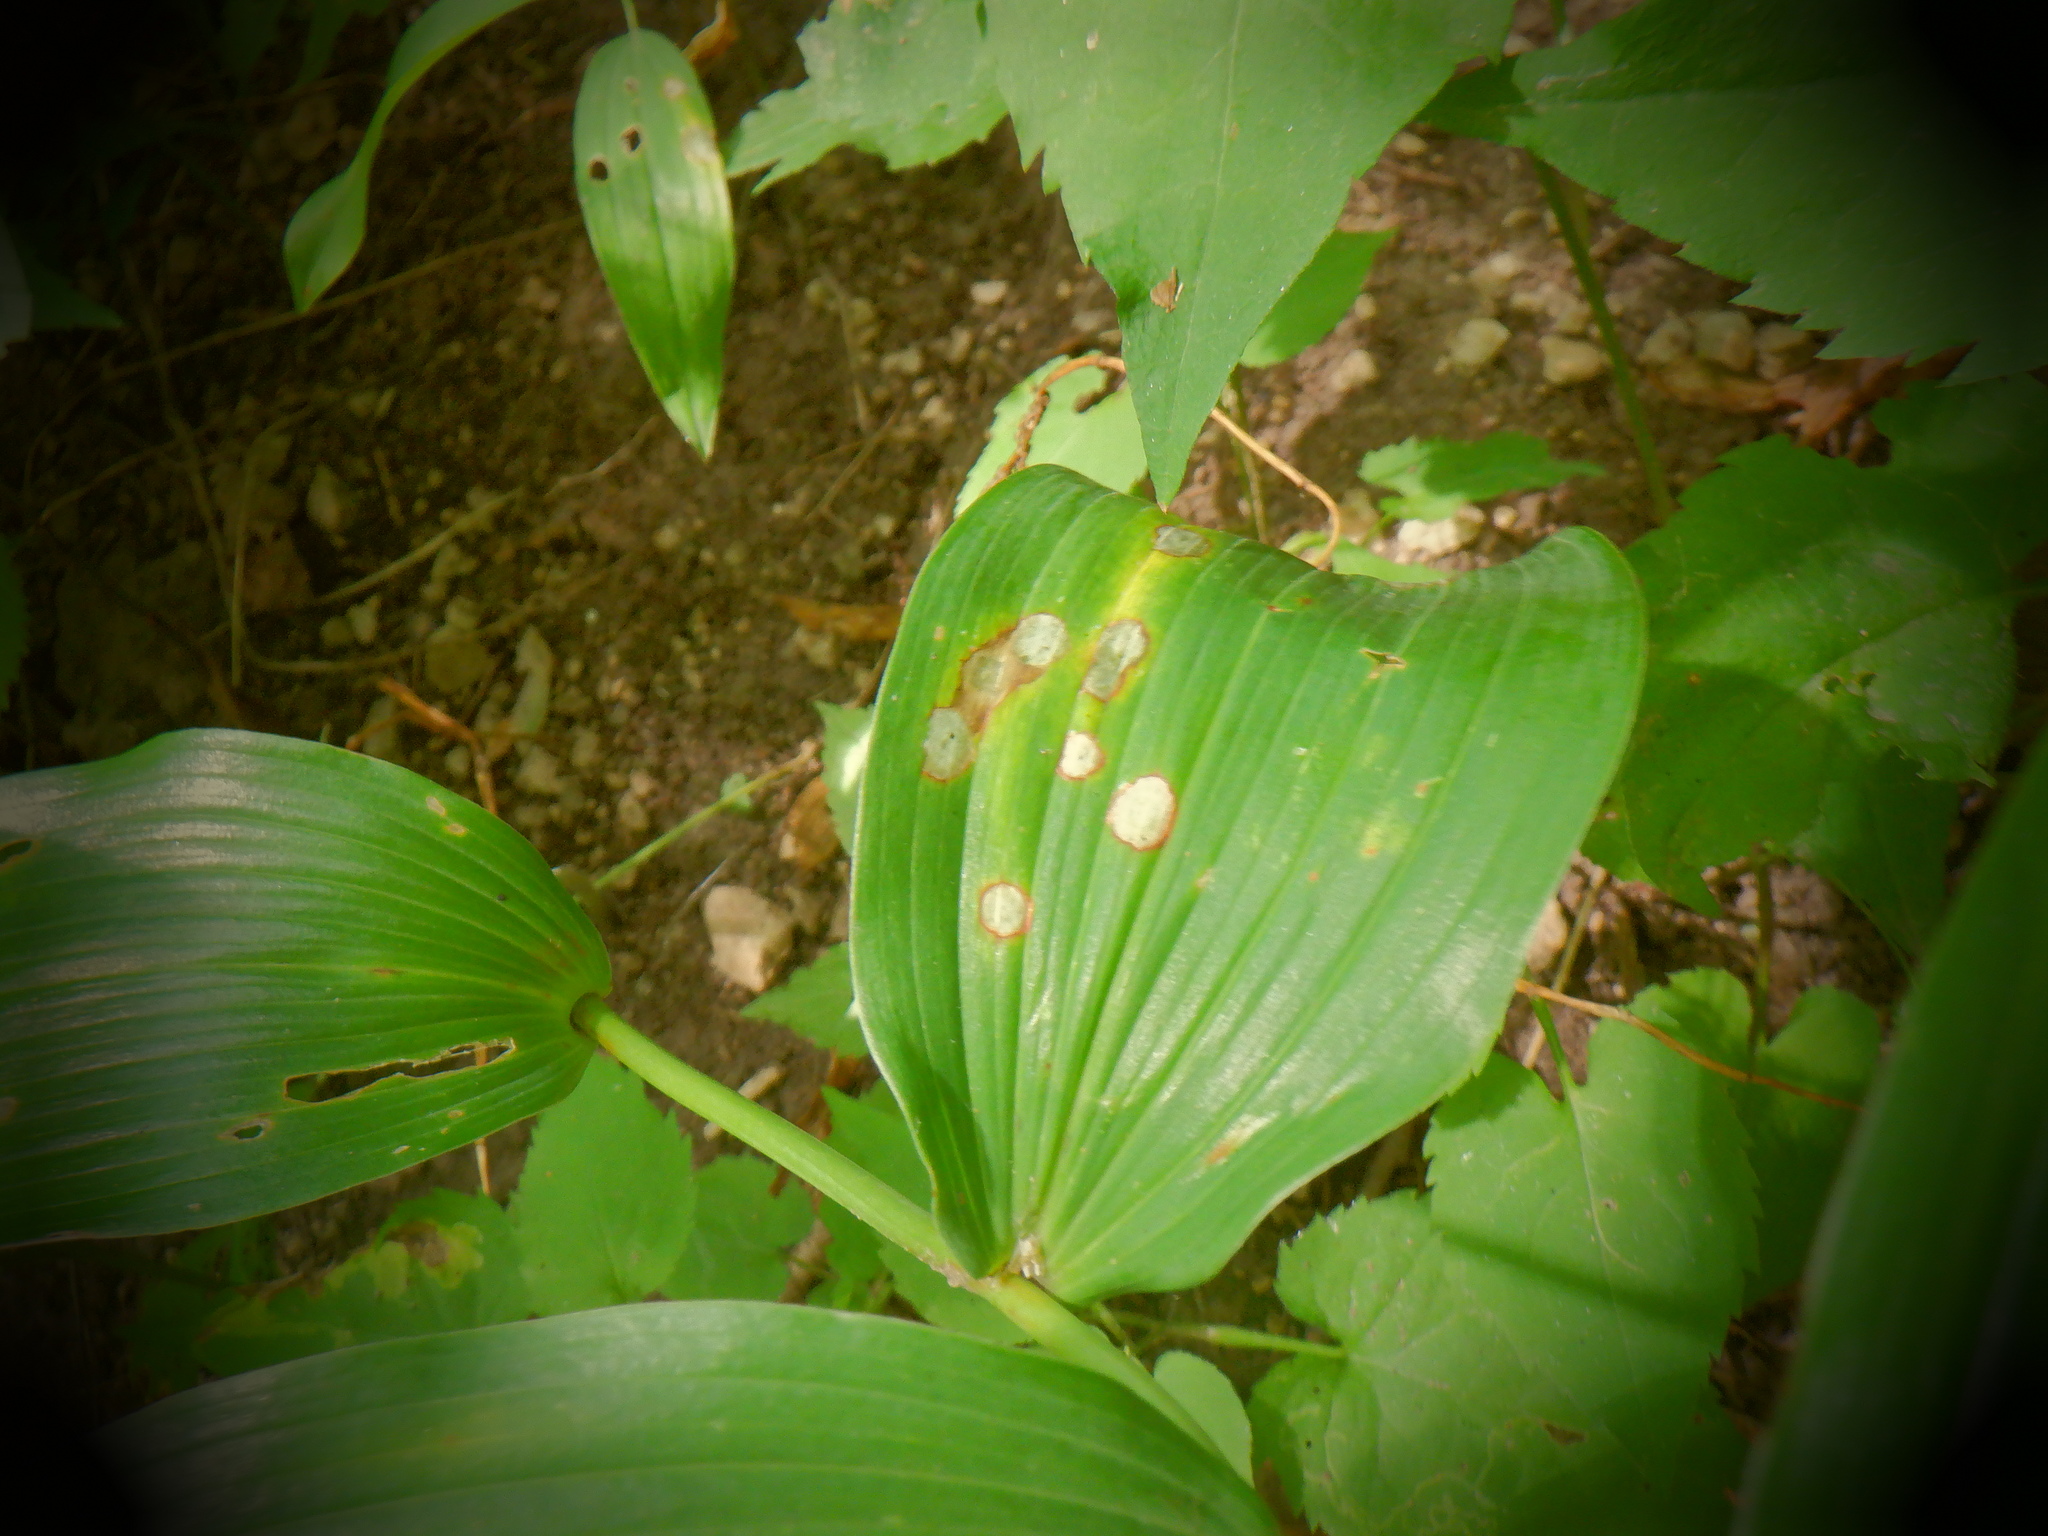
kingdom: Plantae
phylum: Tracheophyta
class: Liliopsida
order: Asparagales
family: Asparagaceae
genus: Polygonatum
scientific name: Polygonatum biflorum
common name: American solomon's-seal
